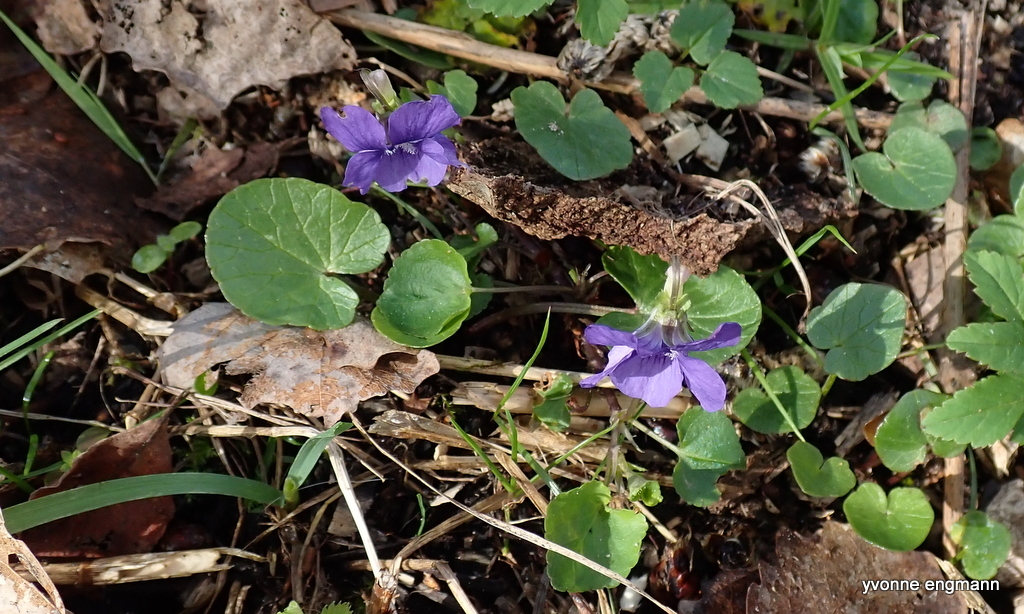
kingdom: Plantae
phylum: Tracheophyta
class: Magnoliopsida
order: Malpighiales
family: Violaceae
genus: Viola
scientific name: Viola riviniana
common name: Common dog-violet
